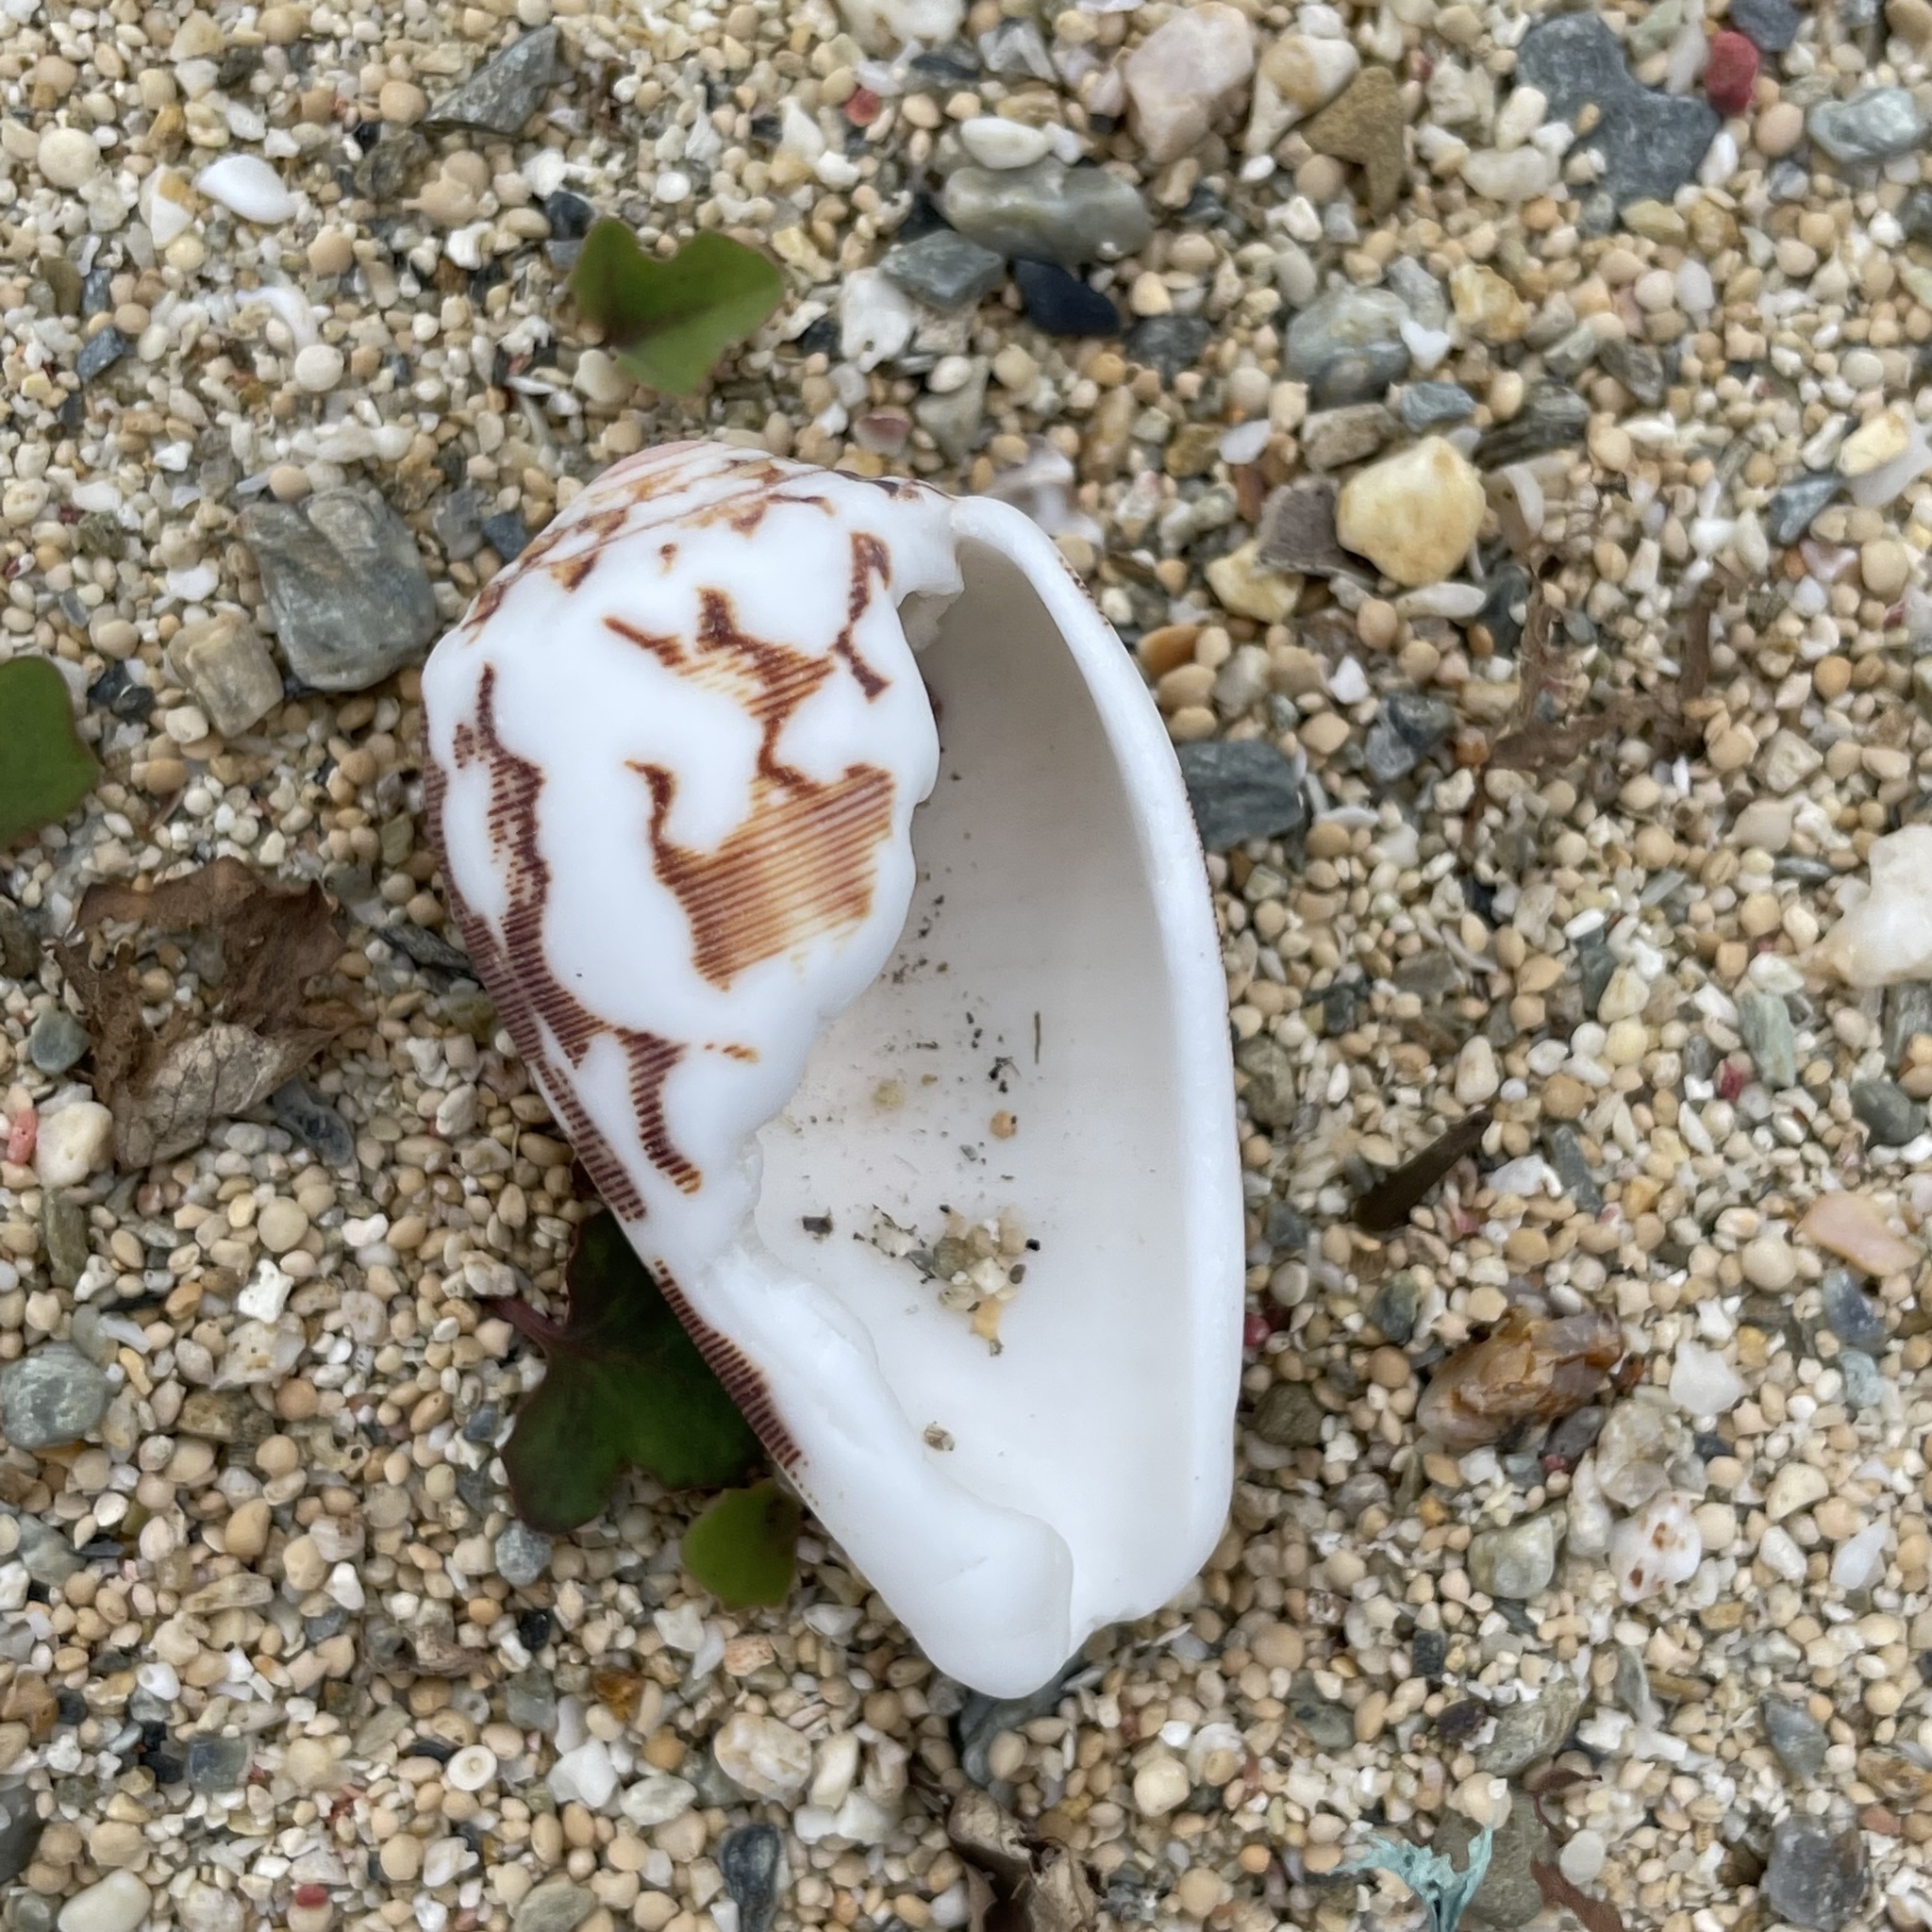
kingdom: Animalia
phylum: Mollusca
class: Gastropoda
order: Neogastropoda
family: Conidae
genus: Conus
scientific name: Conus striatus
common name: Striated cone
